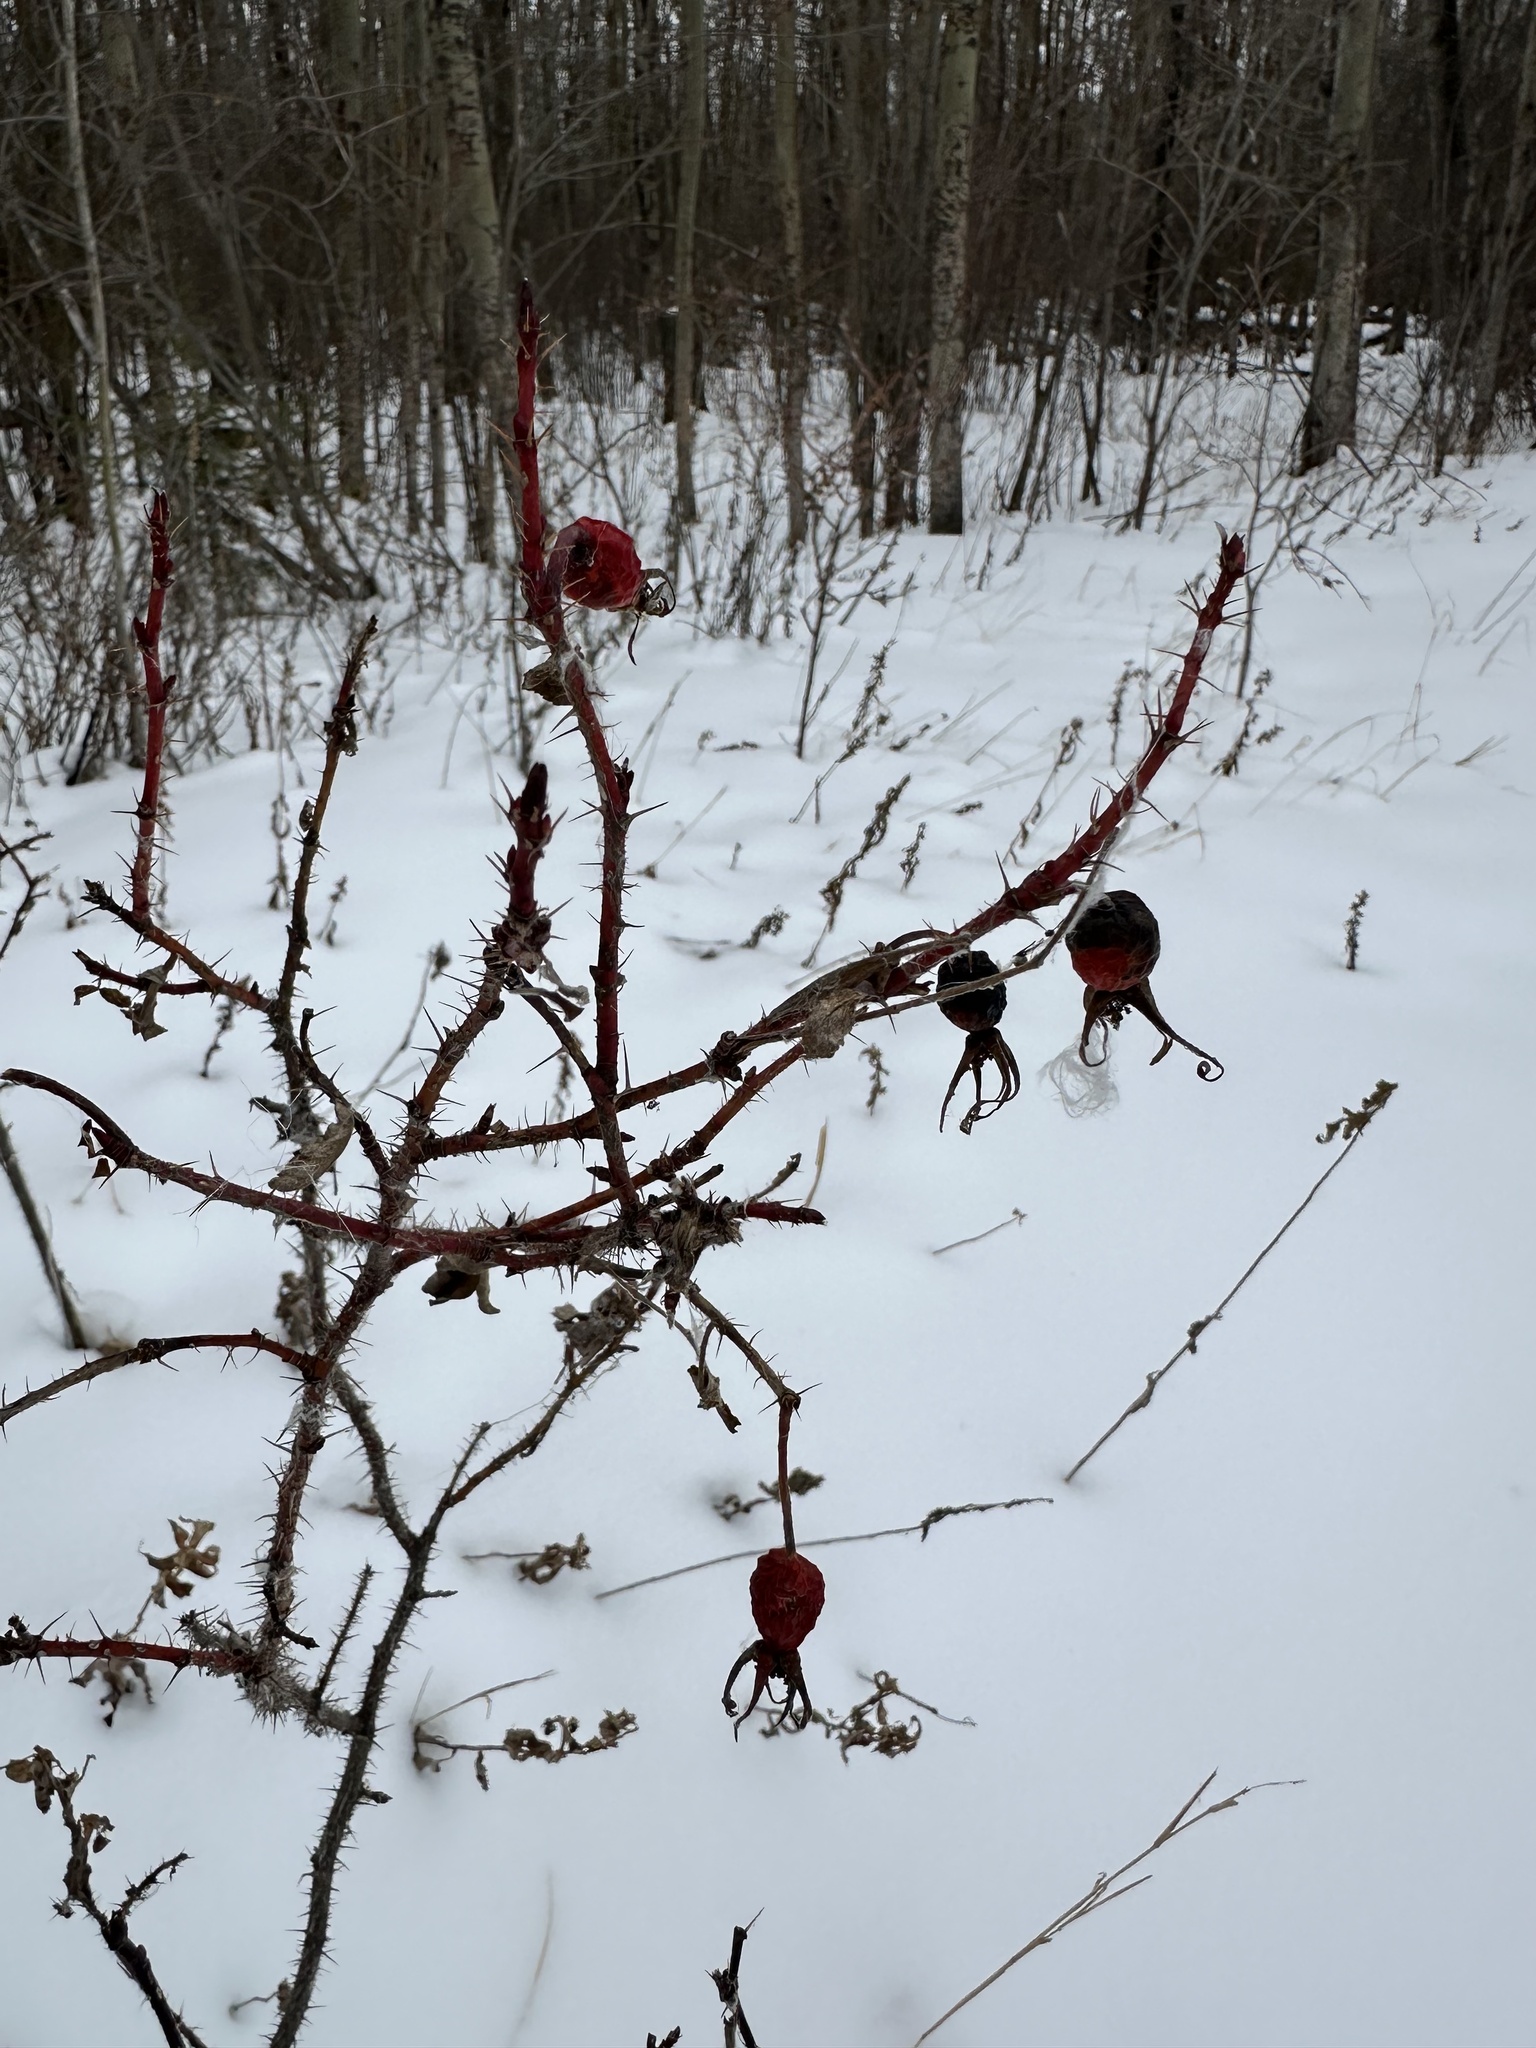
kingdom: Plantae
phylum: Tracheophyta
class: Magnoliopsida
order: Rosales
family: Rosaceae
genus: Rosa
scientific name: Rosa acicularis
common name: Prickly rose
